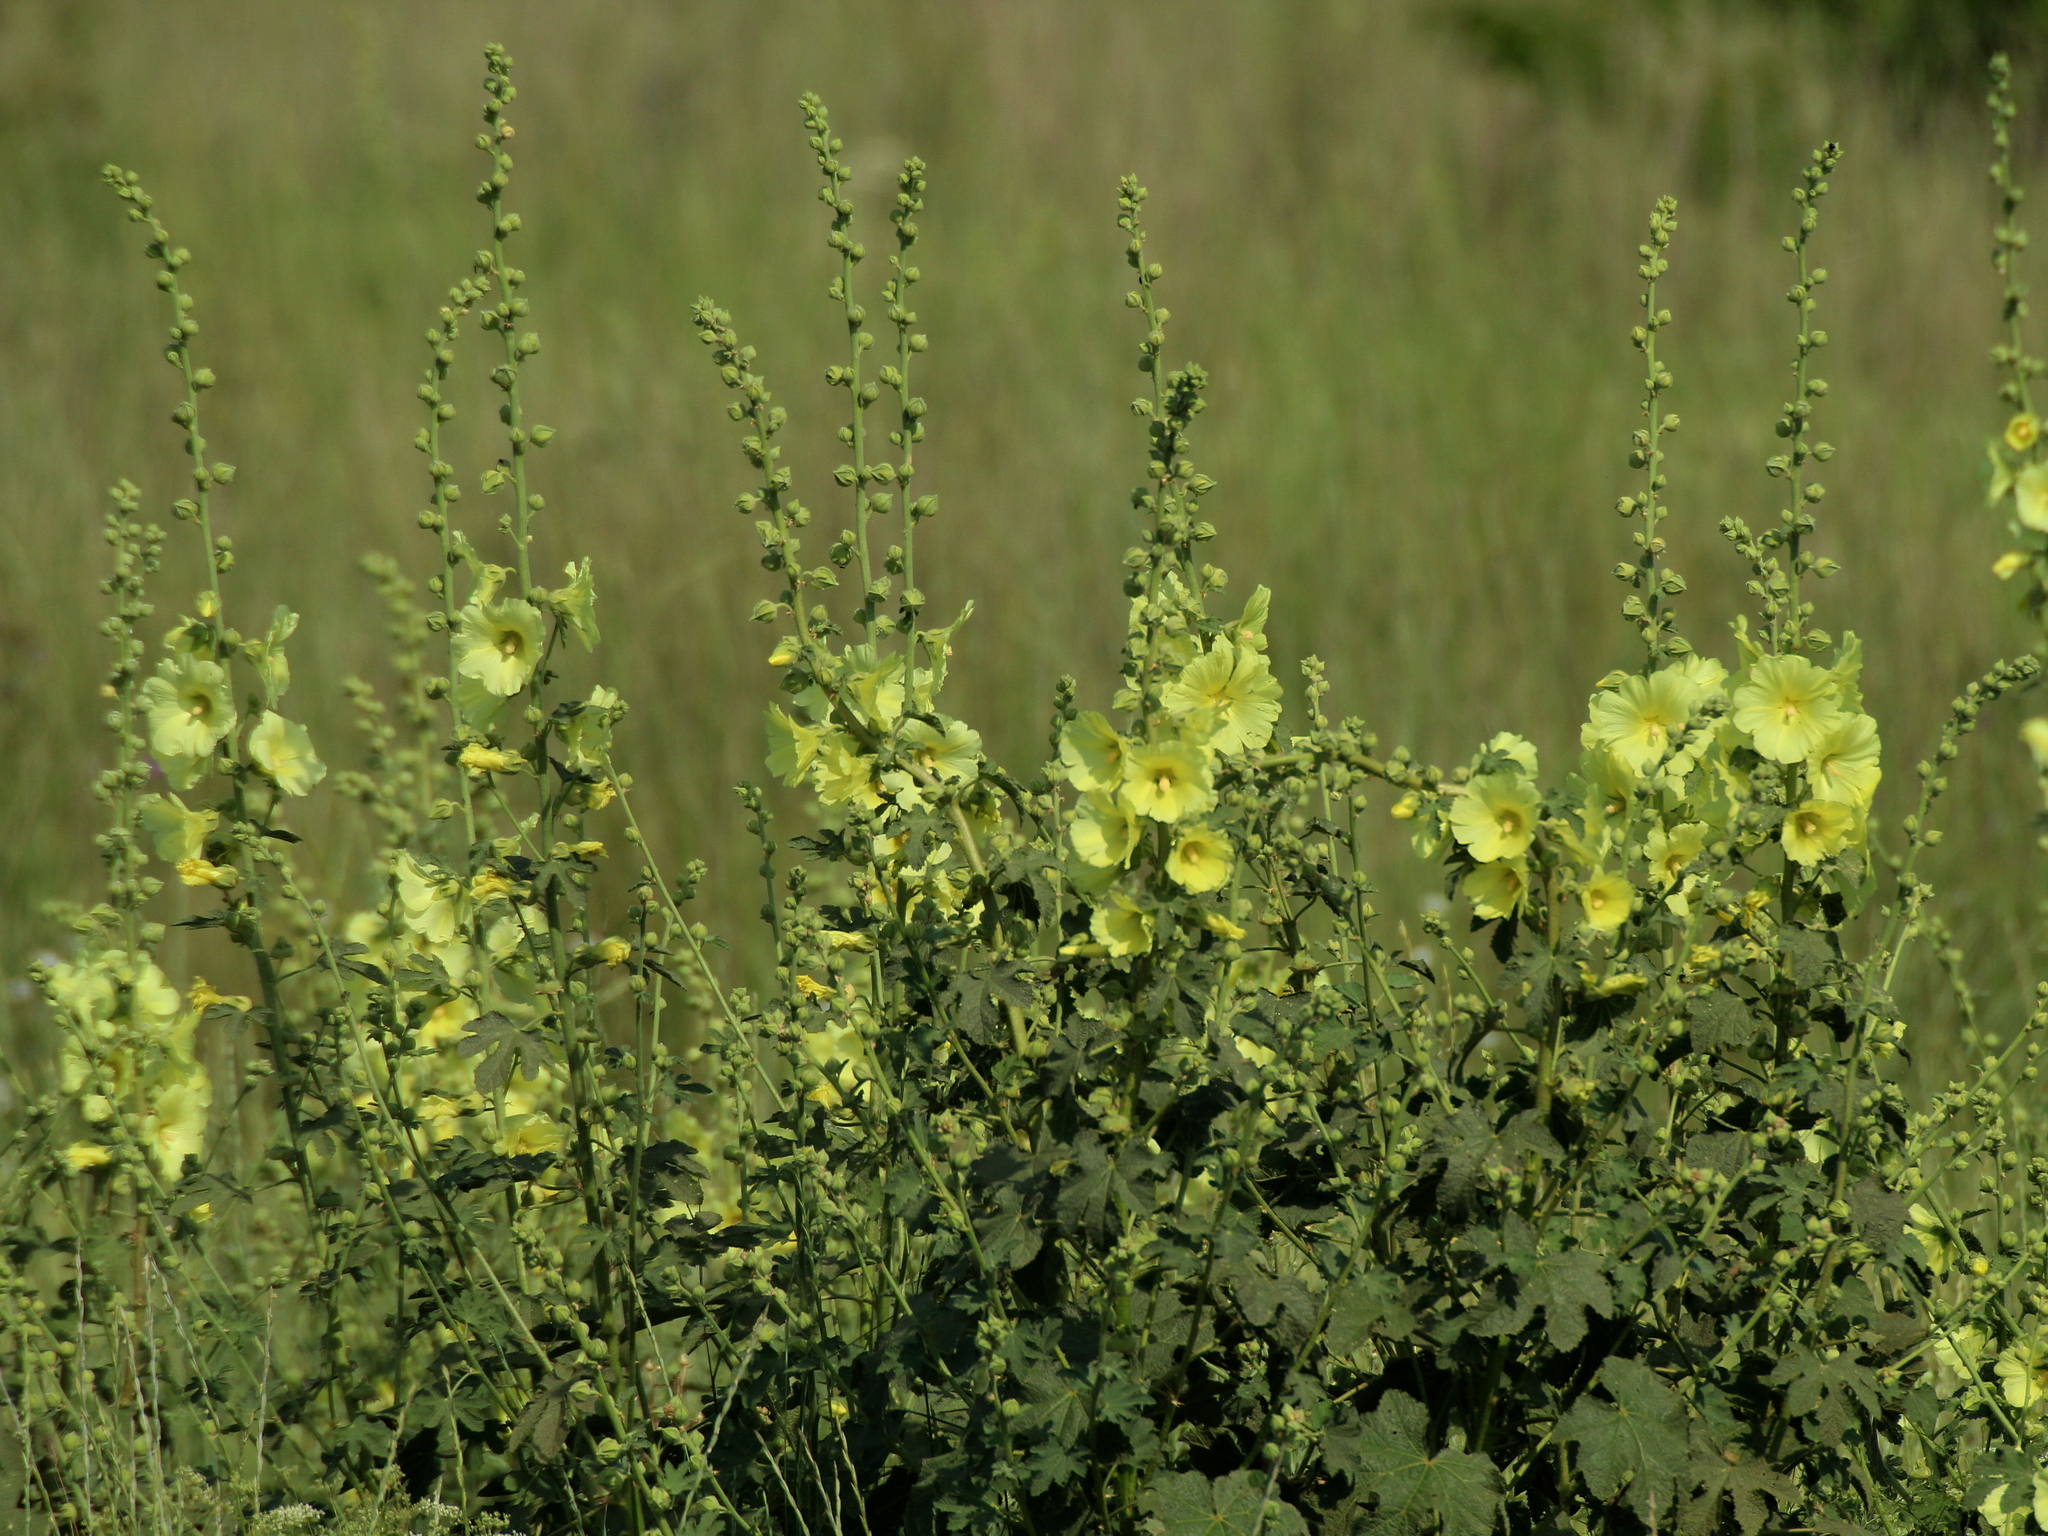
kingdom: Plantae
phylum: Tracheophyta
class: Magnoliopsida
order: Malvales
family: Malvaceae
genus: Alcea
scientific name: Alcea rugosa
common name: Russian hollyhock
